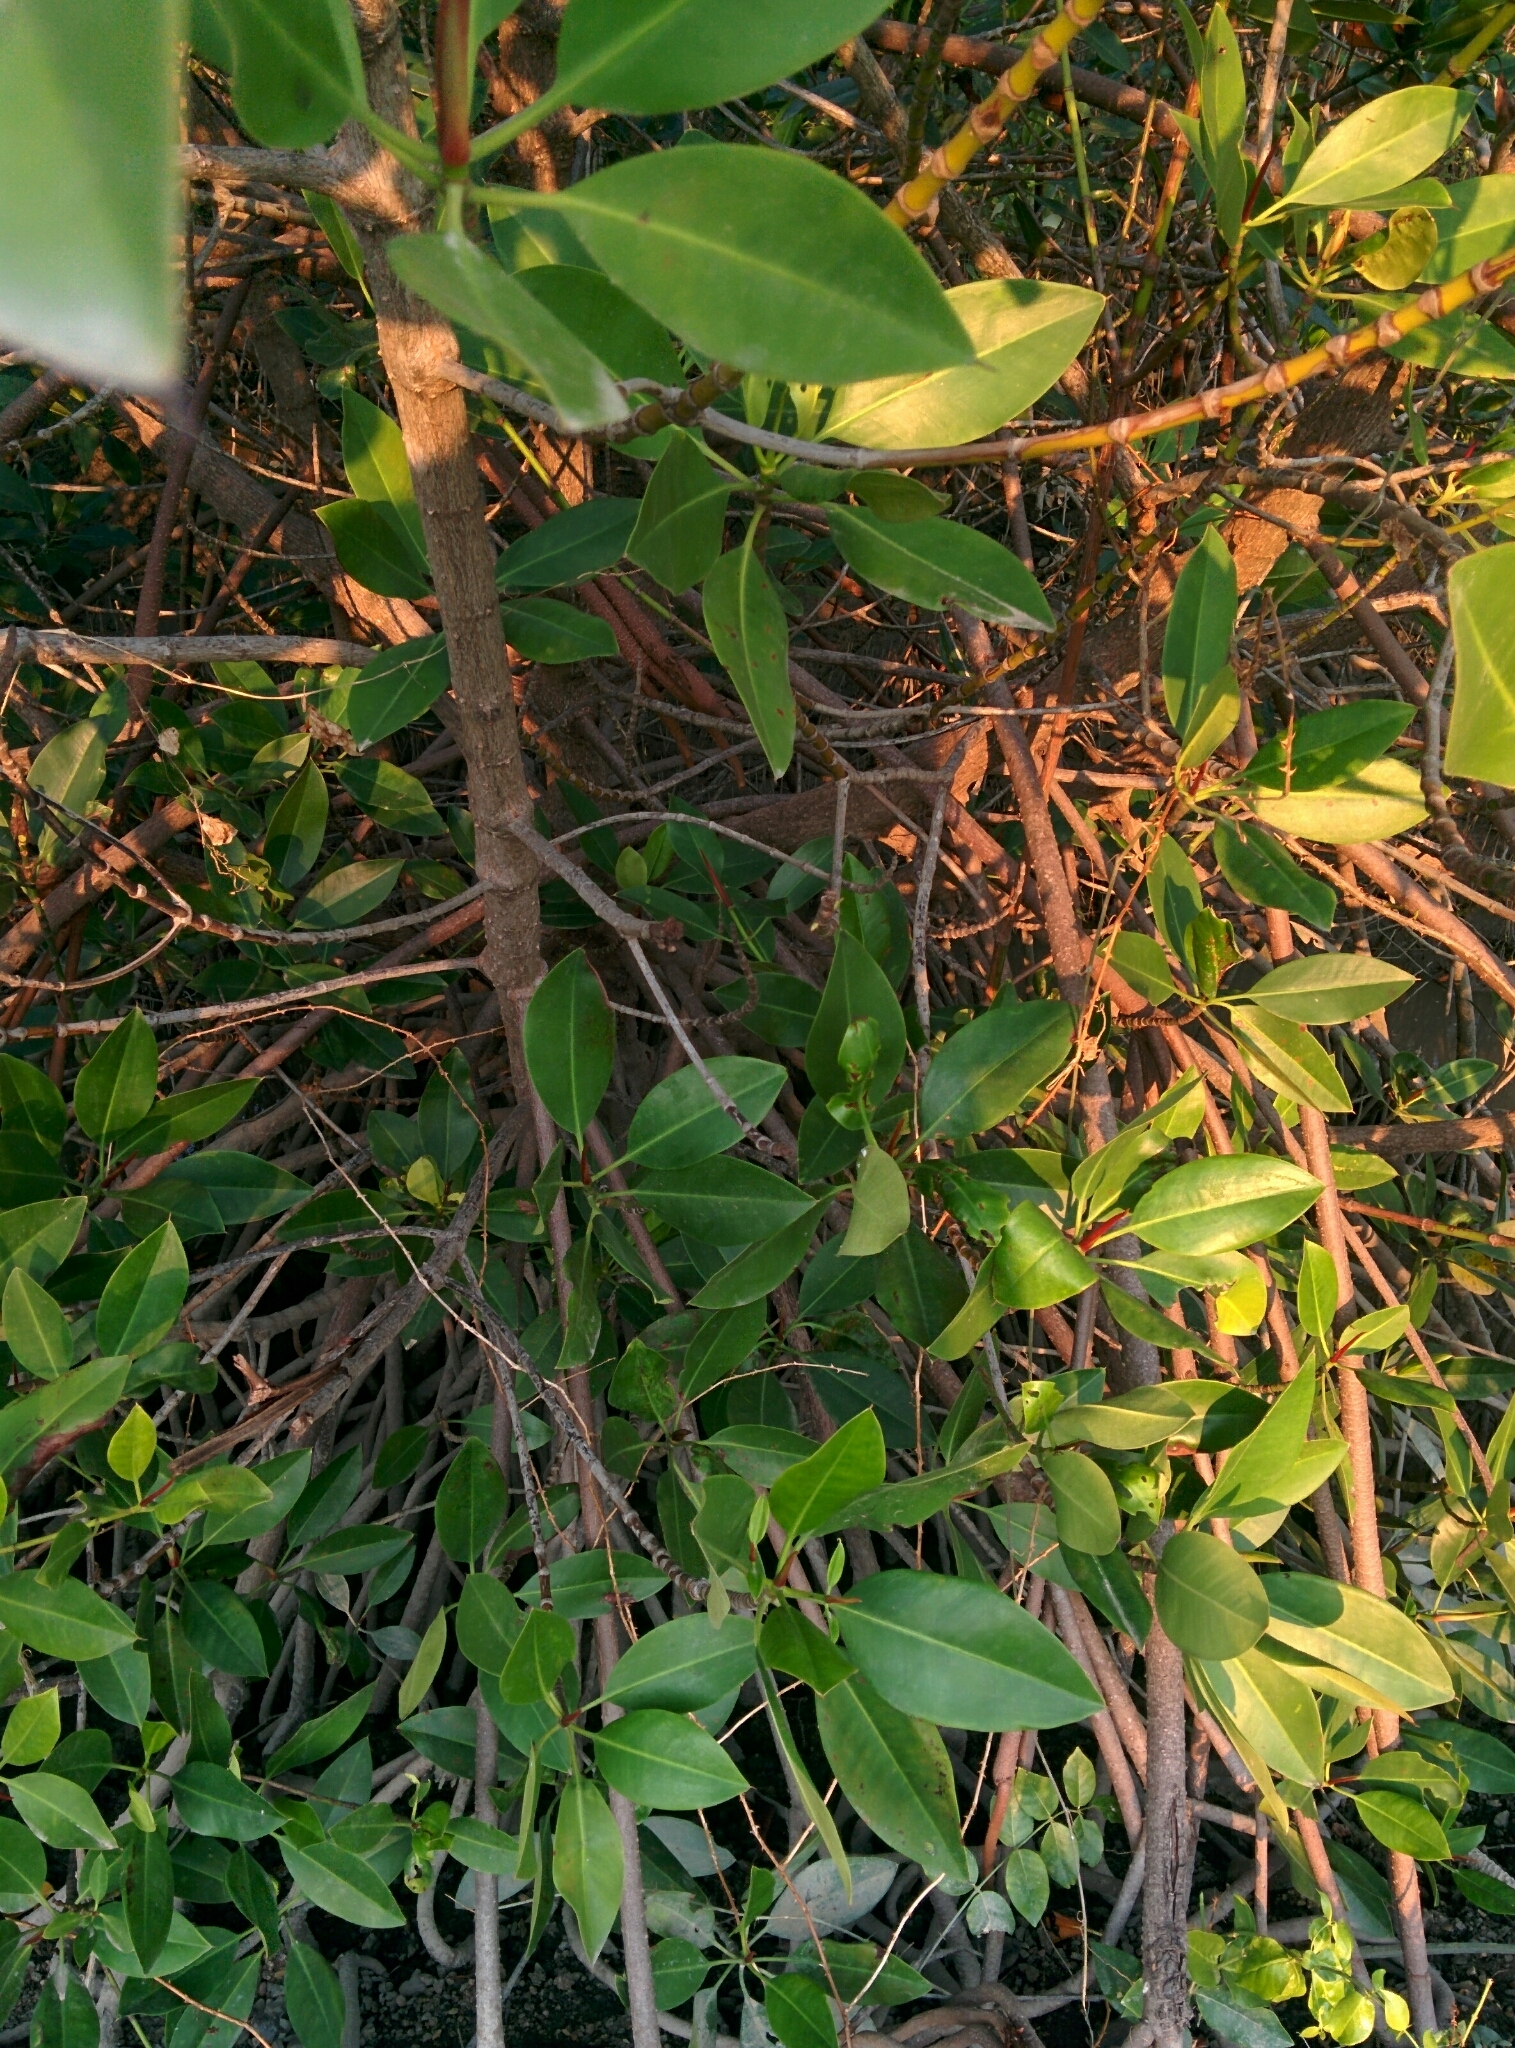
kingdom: Plantae
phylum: Tracheophyta
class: Magnoliopsida
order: Malpighiales
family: Rhizophoraceae
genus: Rhizophora
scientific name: Rhizophora mucronata
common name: Loop-root mangrove
